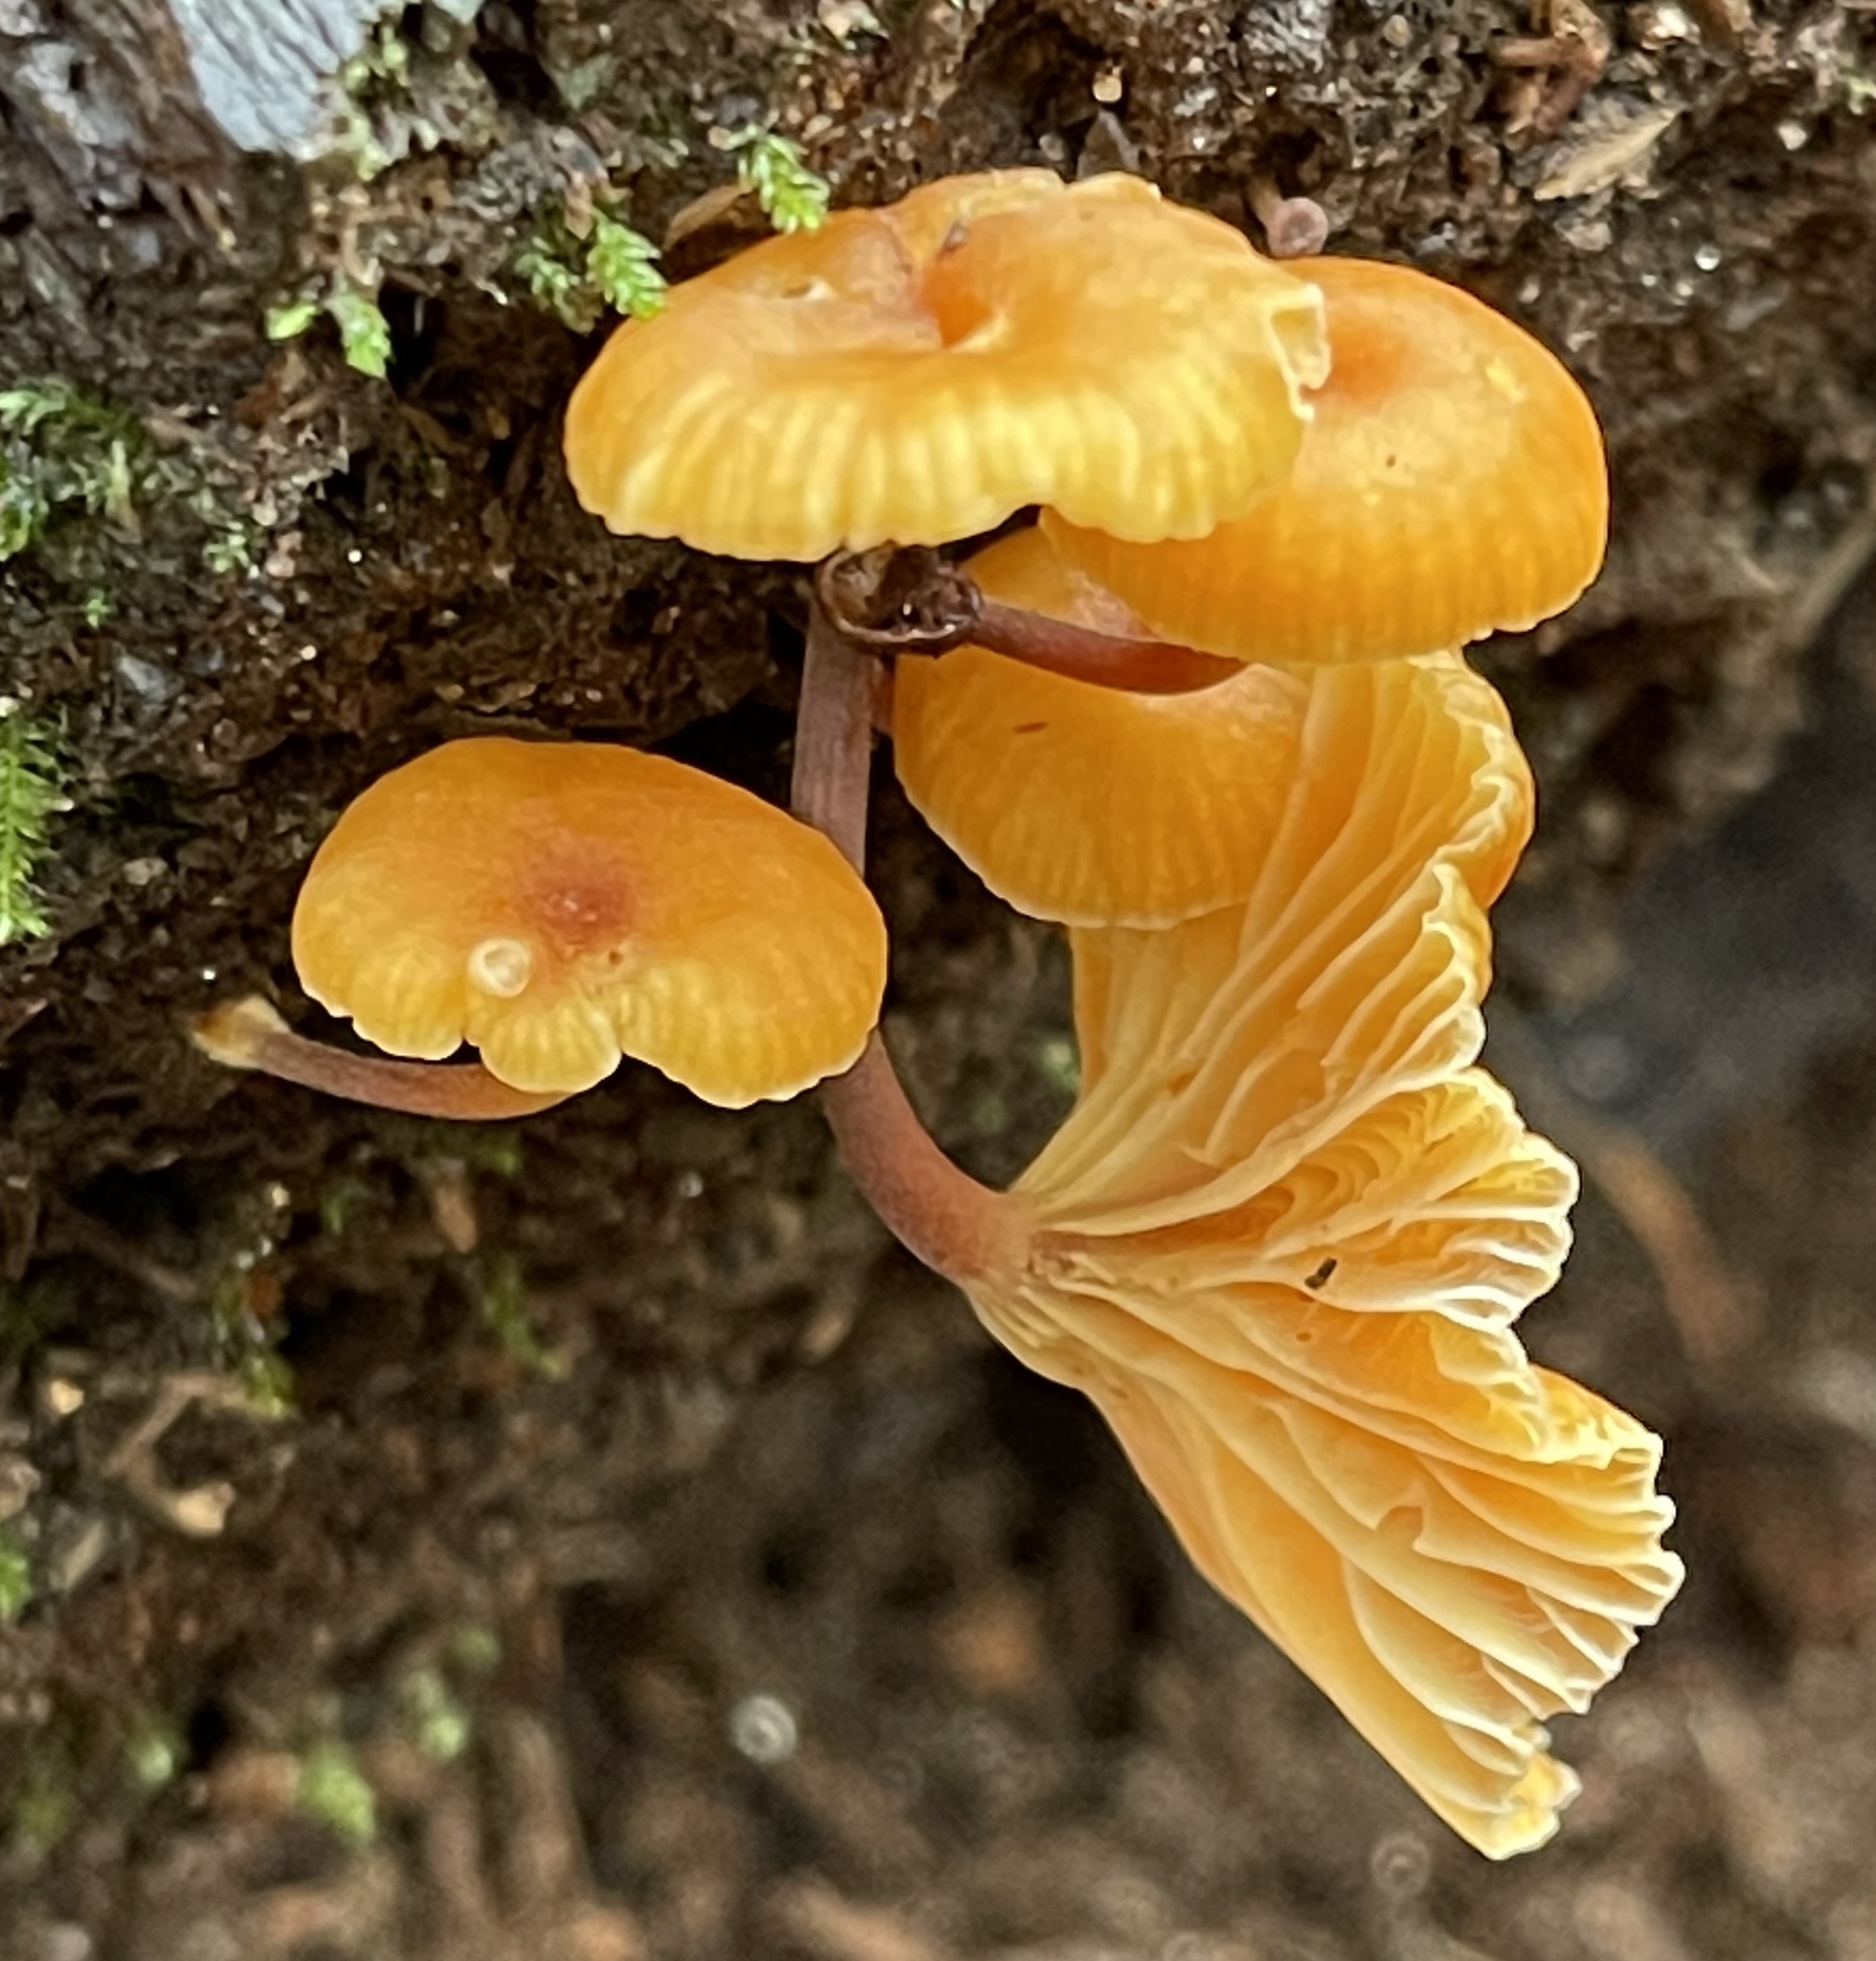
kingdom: Fungi
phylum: Basidiomycota
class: Agaricomycetes
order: Agaricales
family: Mycenaceae
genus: Xeromphalina
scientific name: Xeromphalina campanella
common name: Pinewood gingertail
